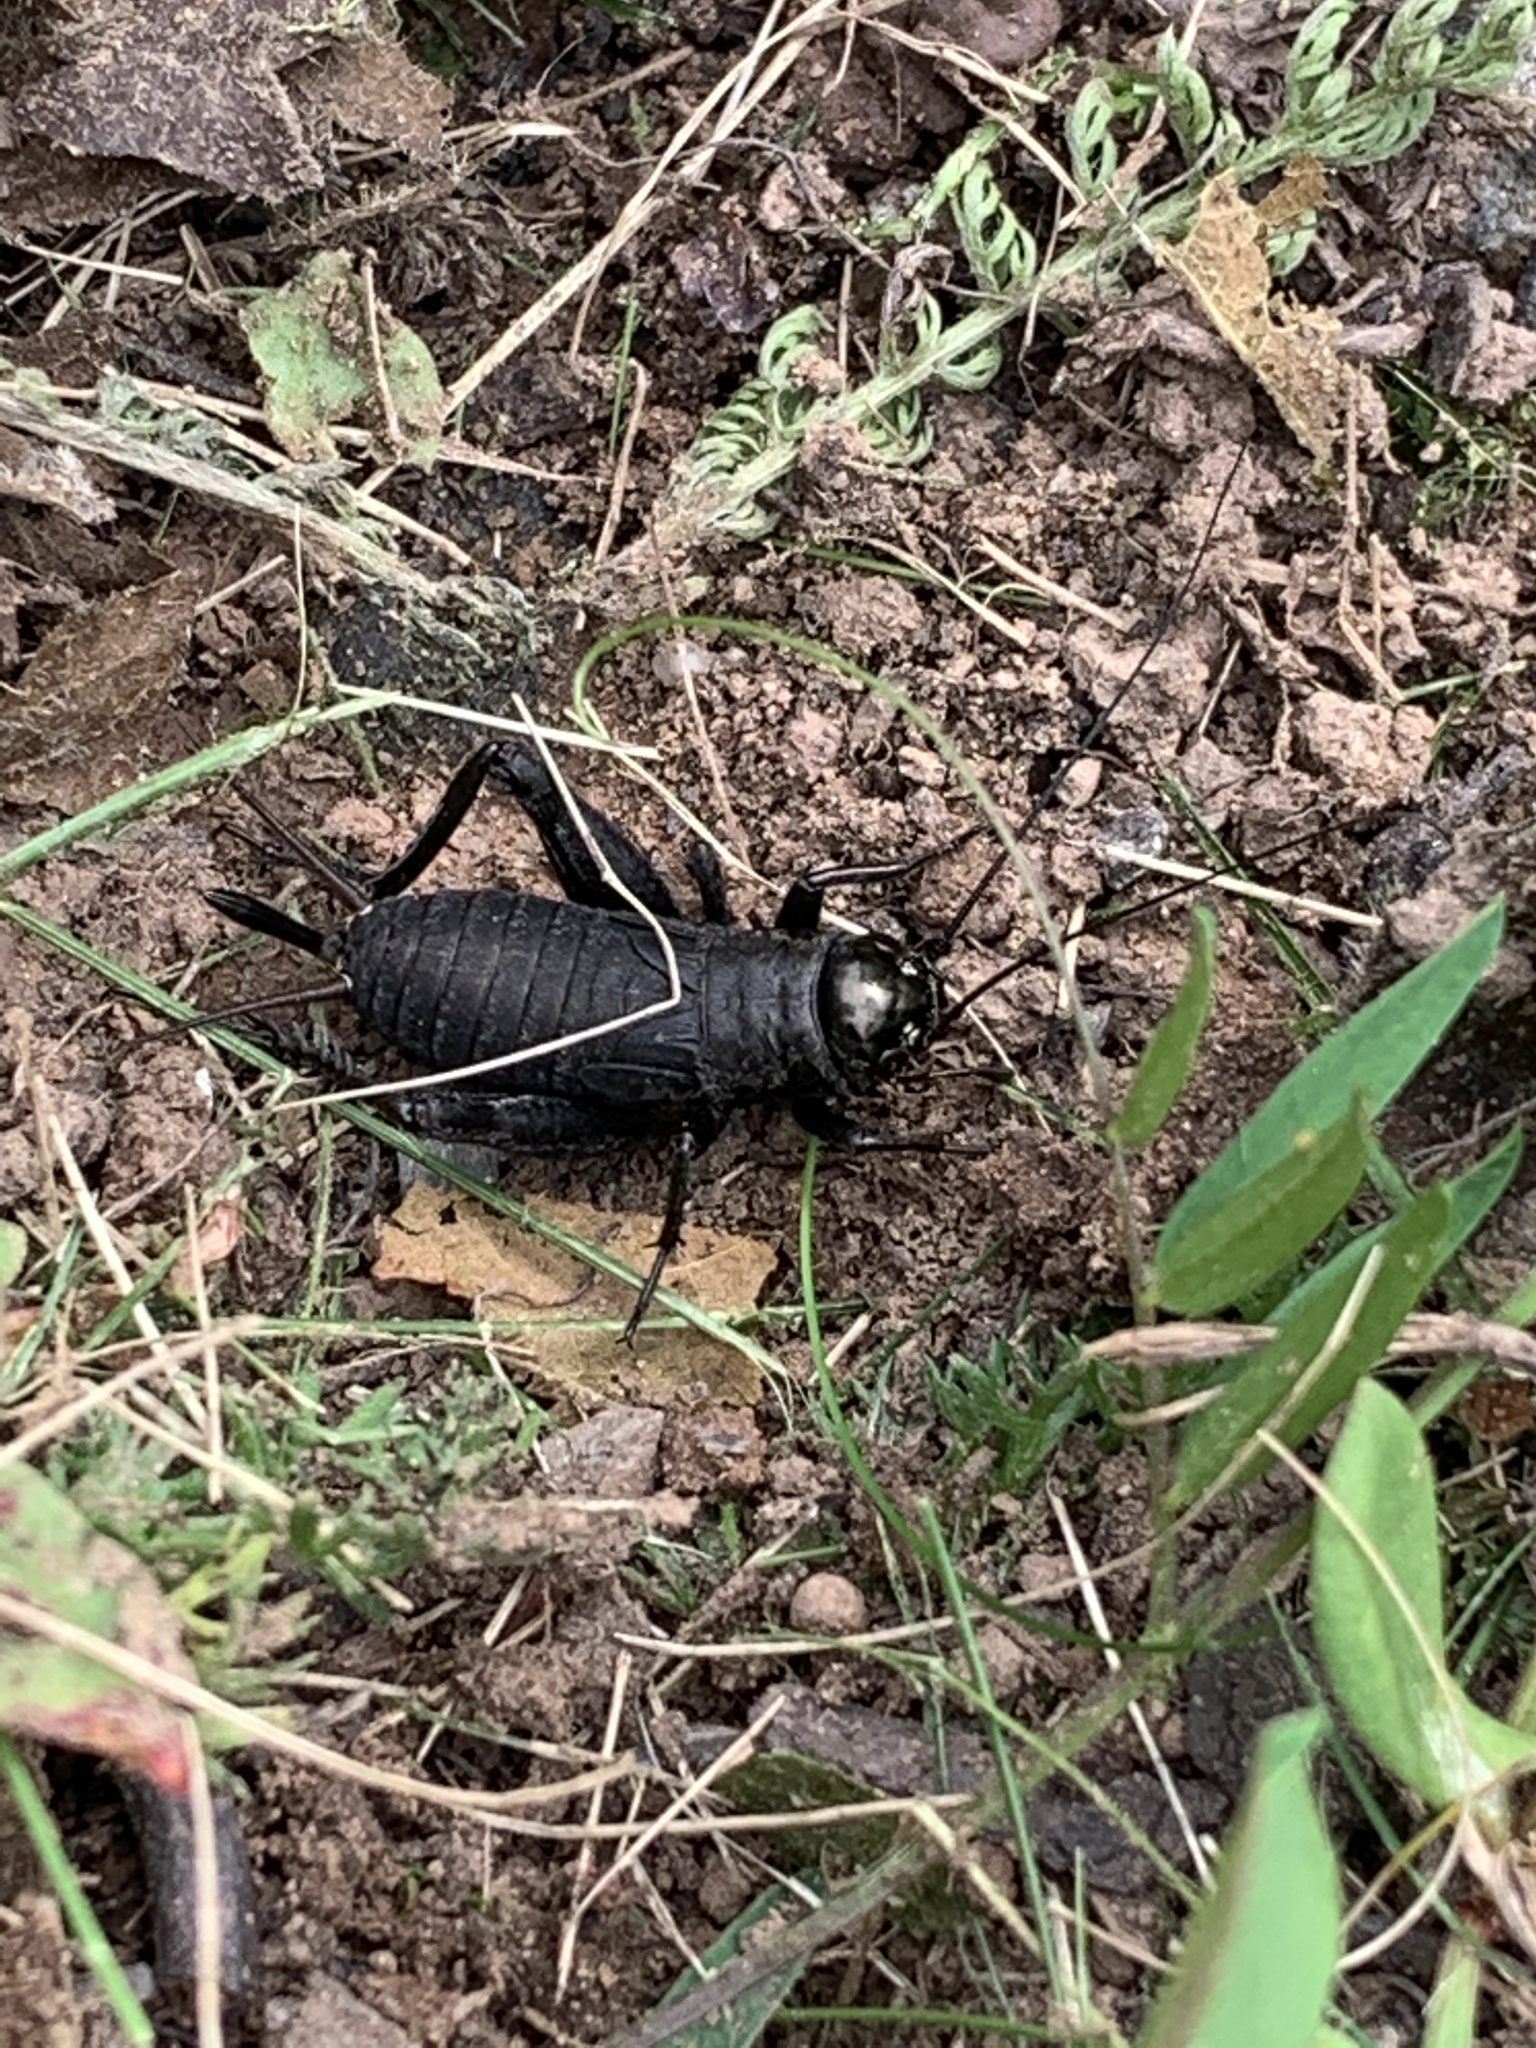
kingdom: Animalia
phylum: Arthropoda
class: Insecta
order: Orthoptera
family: Gryllidae
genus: Gryllus
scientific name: Gryllus pennsylvanicus
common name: Fall field cricket
